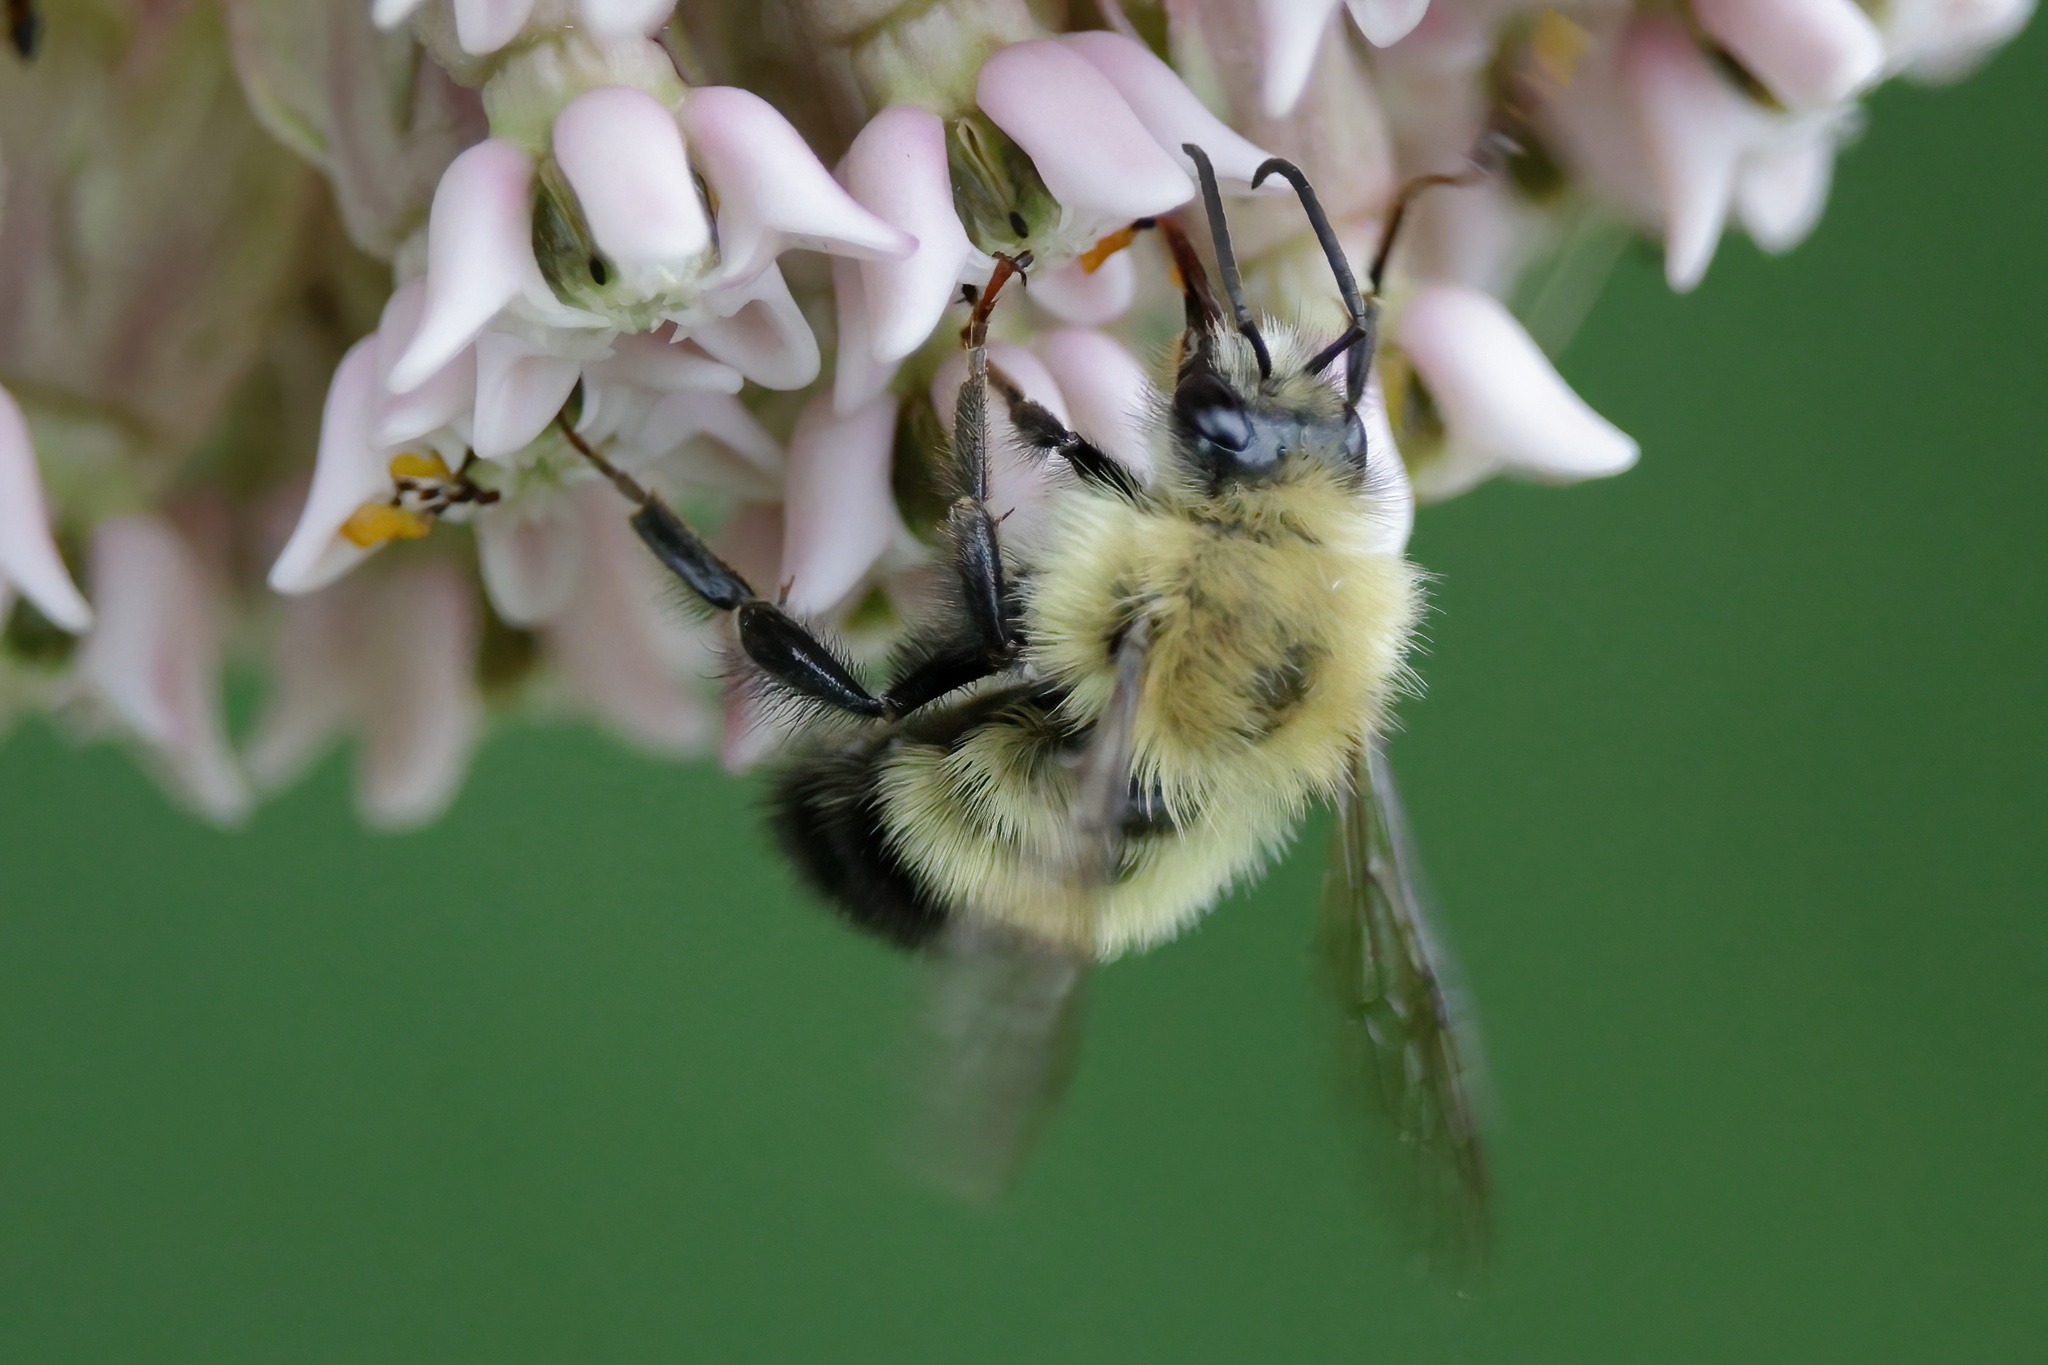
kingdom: Animalia
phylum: Arthropoda
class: Insecta
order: Hymenoptera
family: Apidae
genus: Bombus
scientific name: Bombus vagans
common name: Half-black bumble bee
